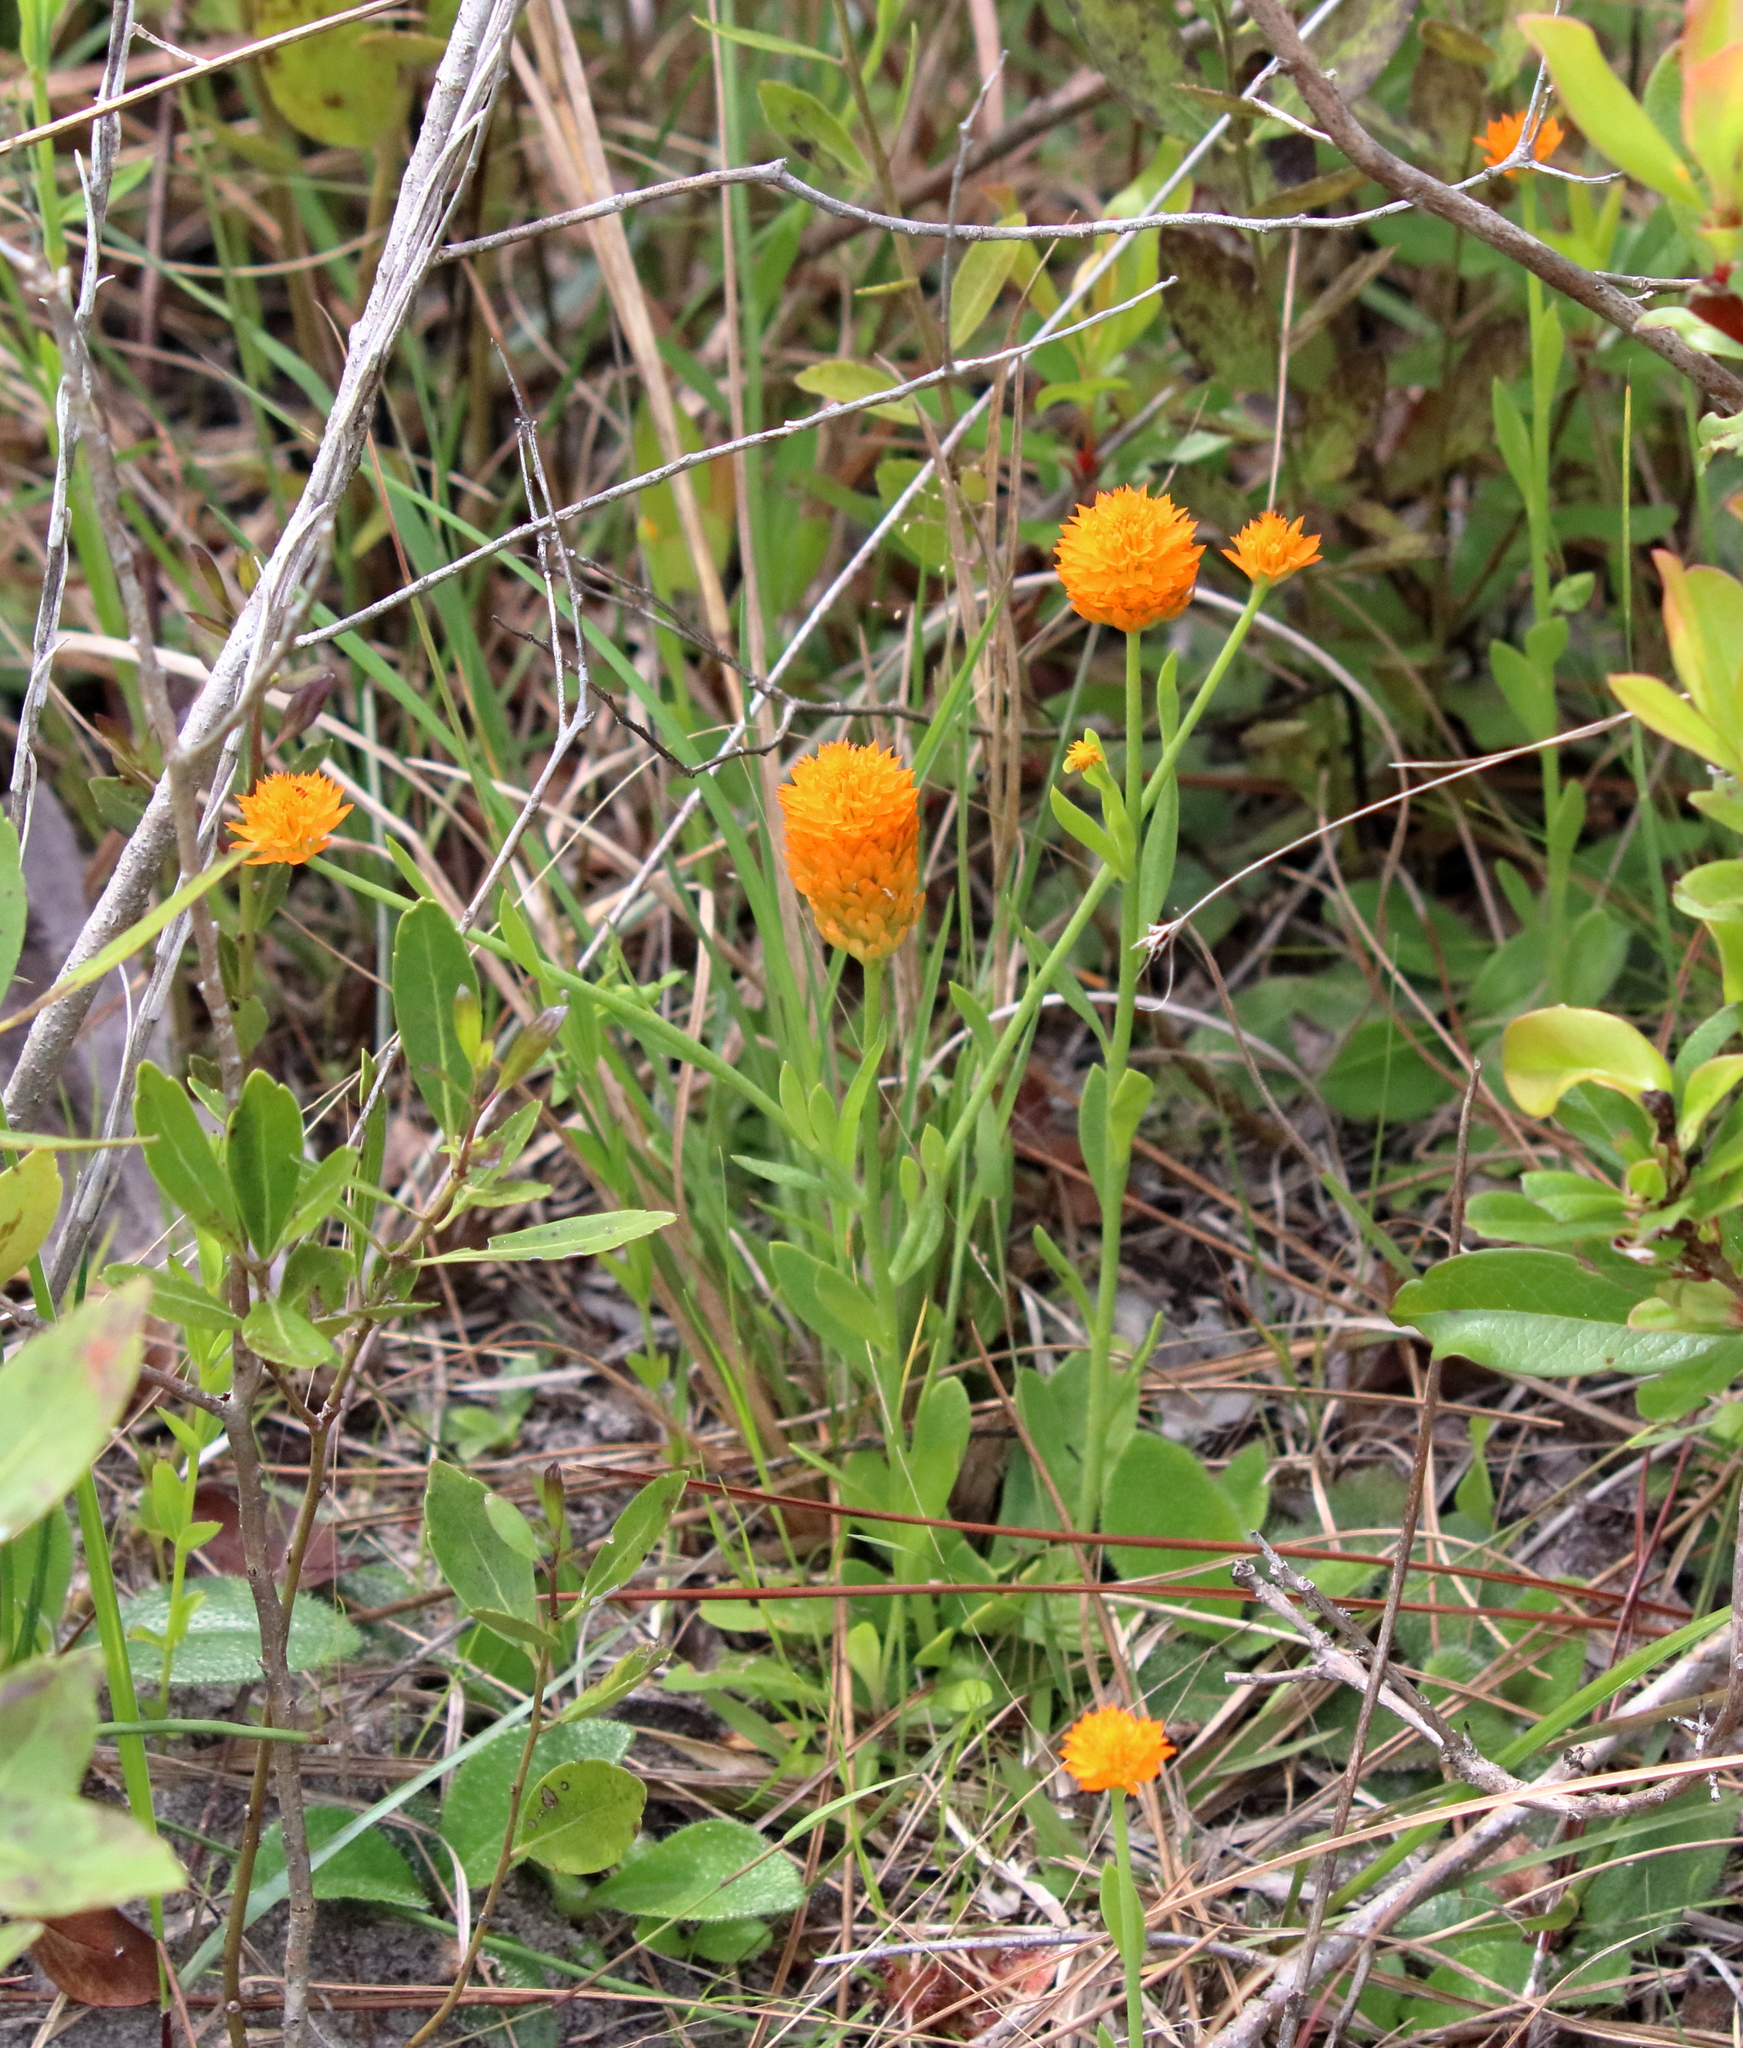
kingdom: Plantae
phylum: Tracheophyta
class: Magnoliopsida
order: Fabales
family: Polygalaceae
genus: Polygala
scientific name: Polygala lutea
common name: Orange milkwort
